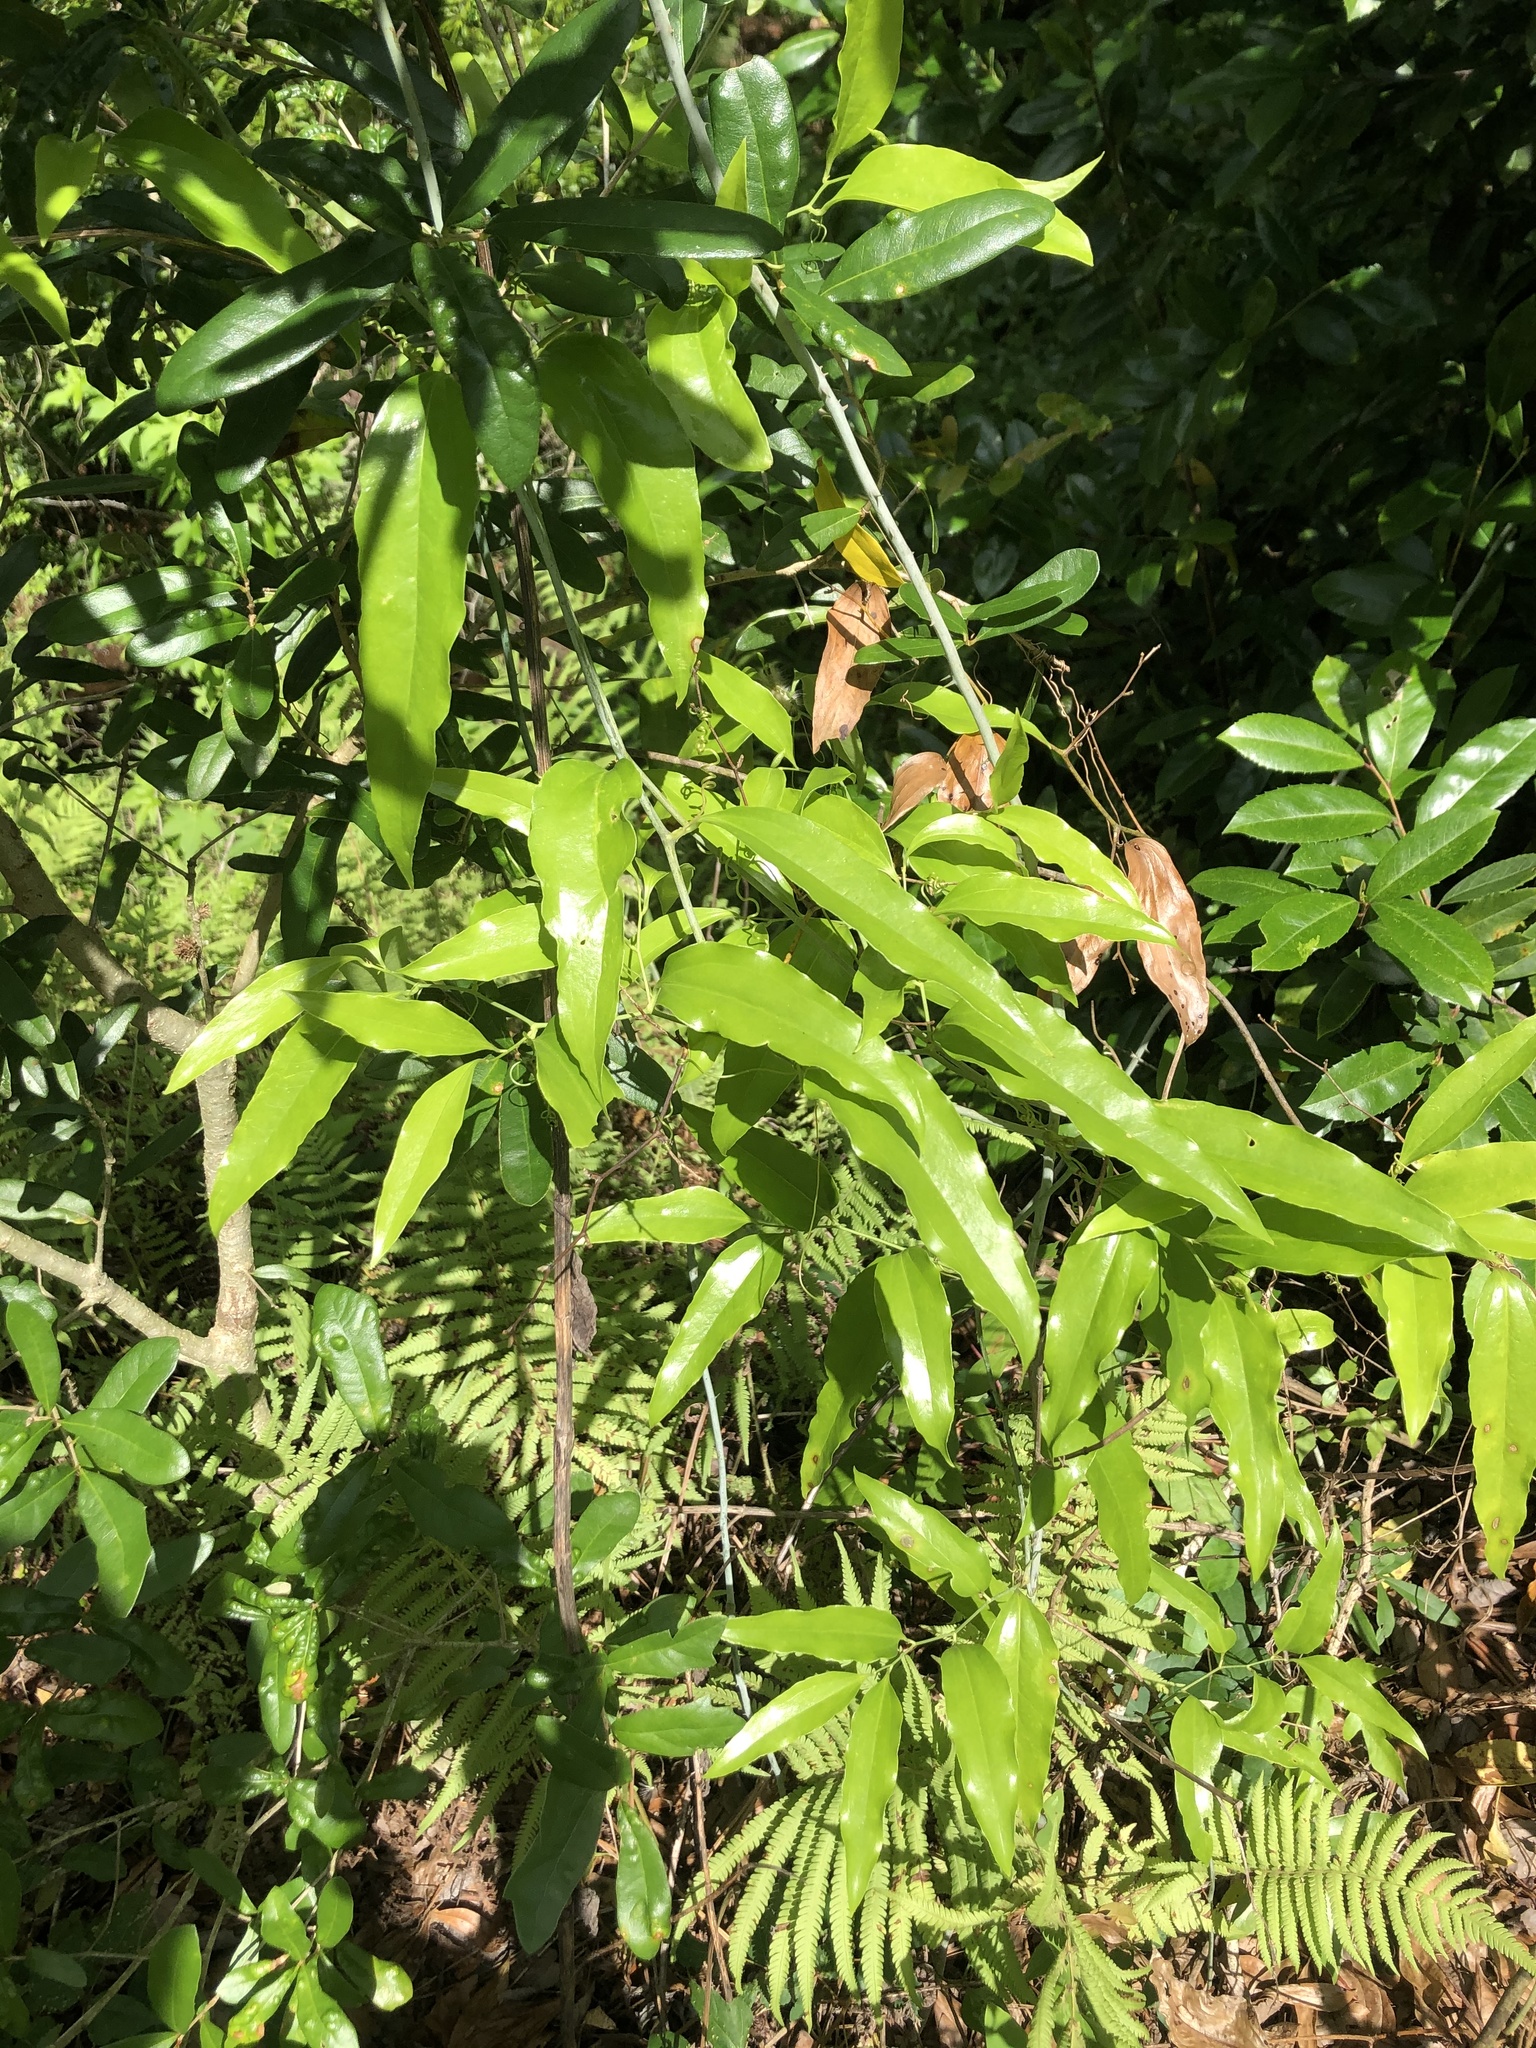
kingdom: Plantae
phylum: Tracheophyta
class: Liliopsida
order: Liliales
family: Smilacaceae
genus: Smilax
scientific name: Smilax maritima
